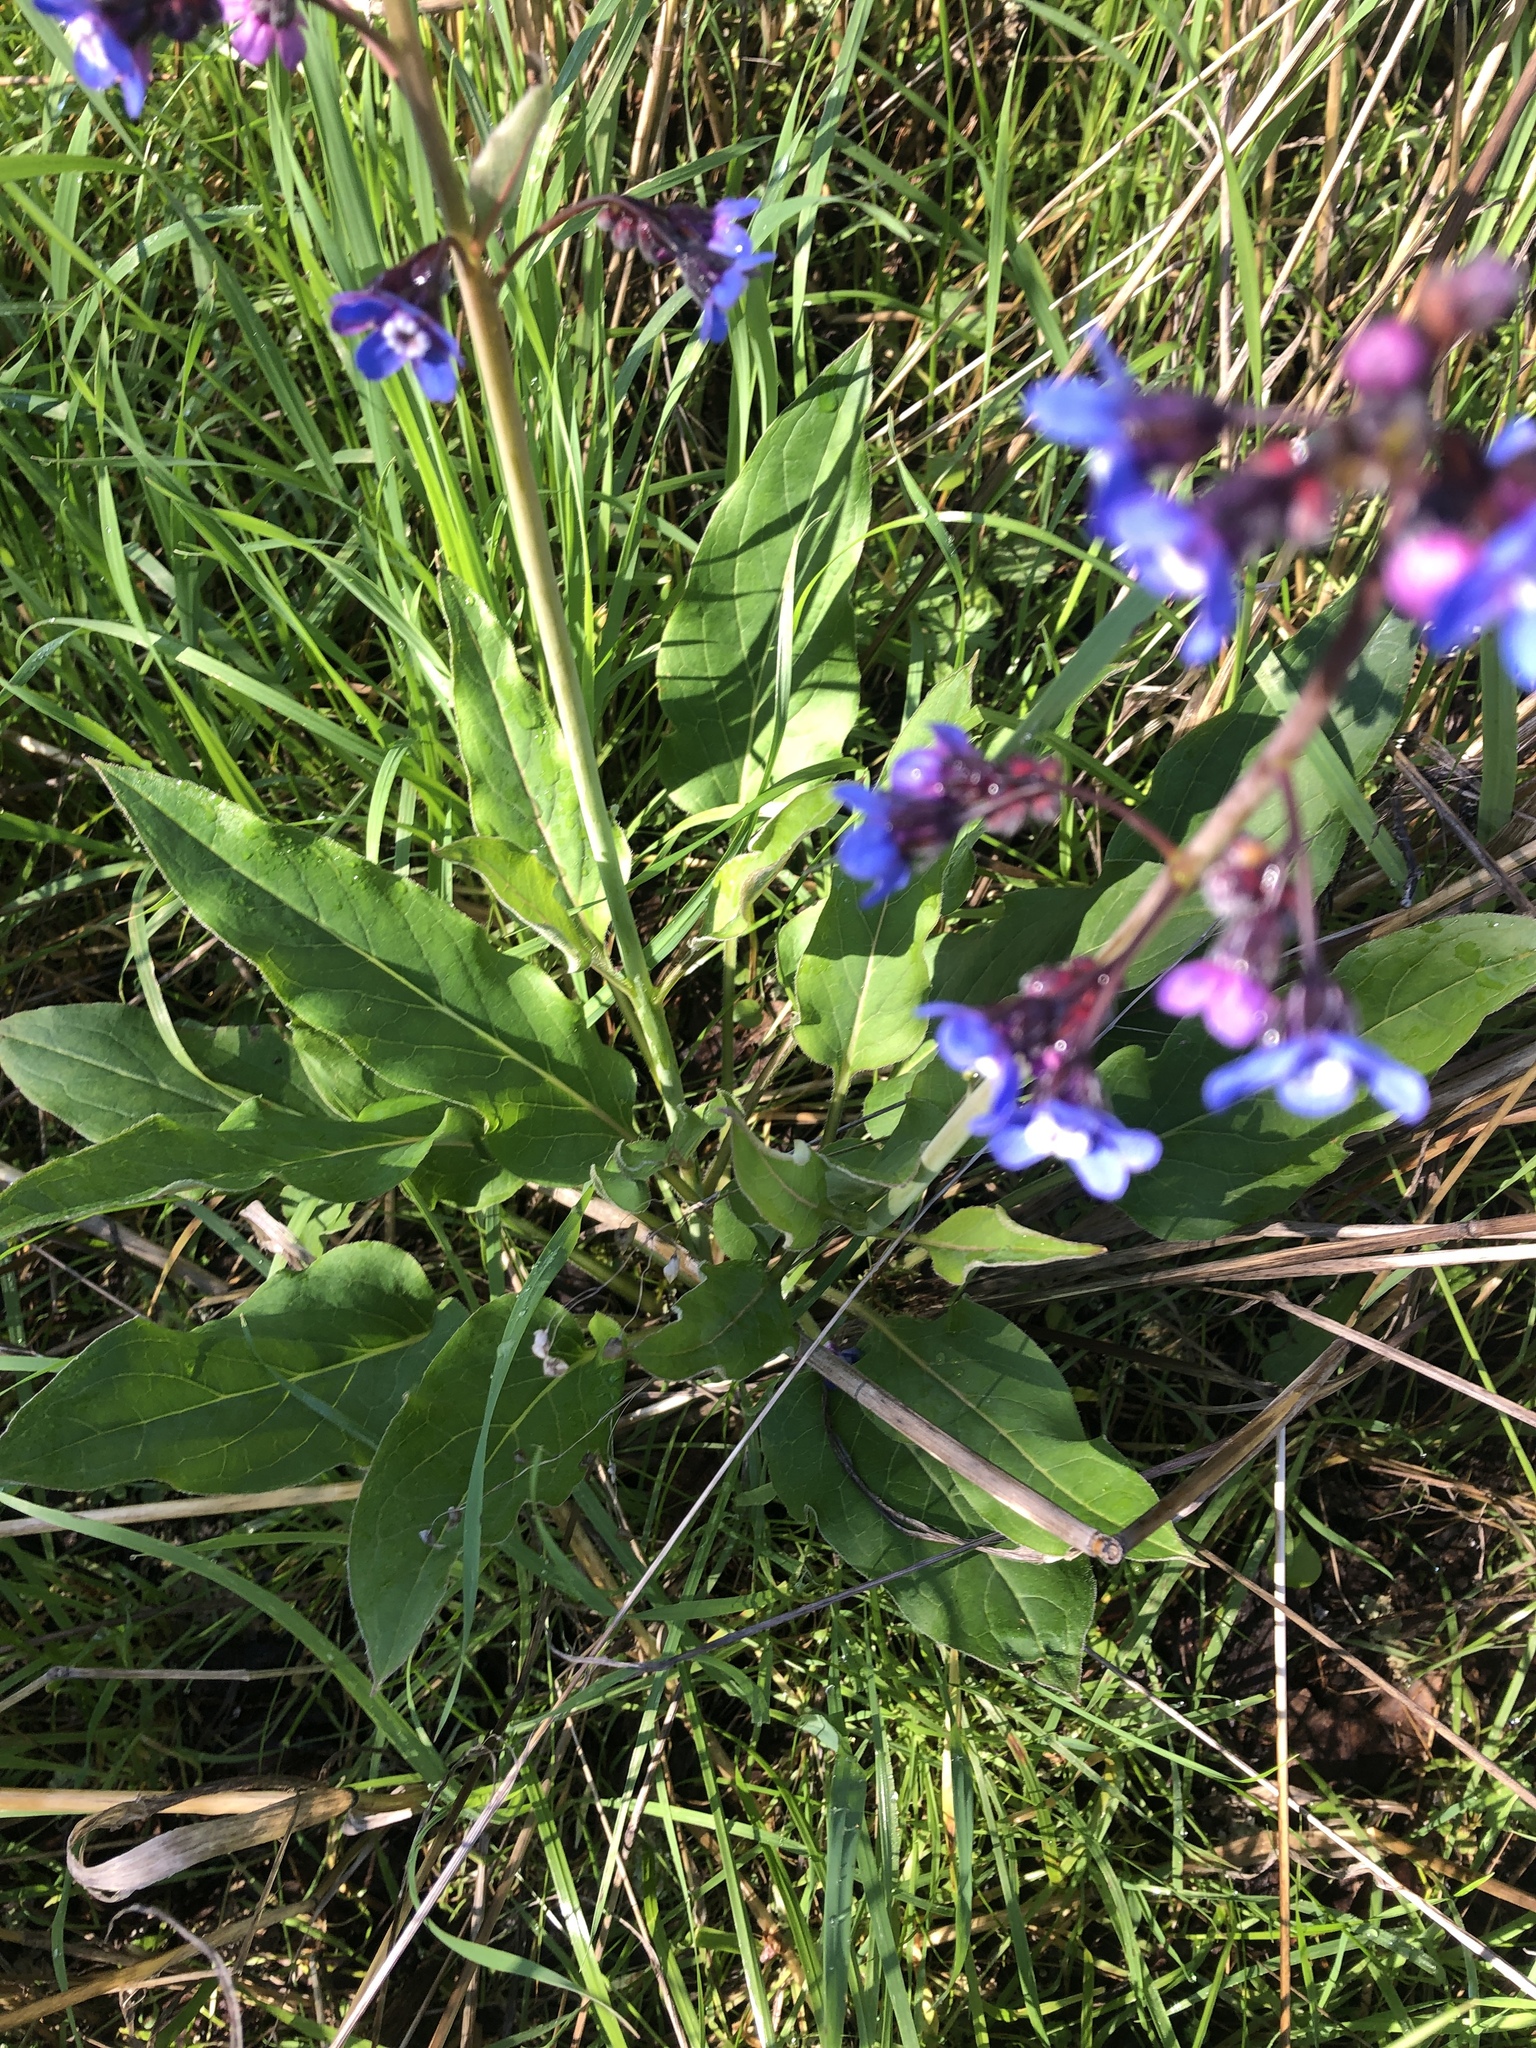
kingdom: Plantae
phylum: Tracheophyta
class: Magnoliopsida
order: Boraginales
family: Boraginaceae
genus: Adelinia
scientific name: Adelinia grande
